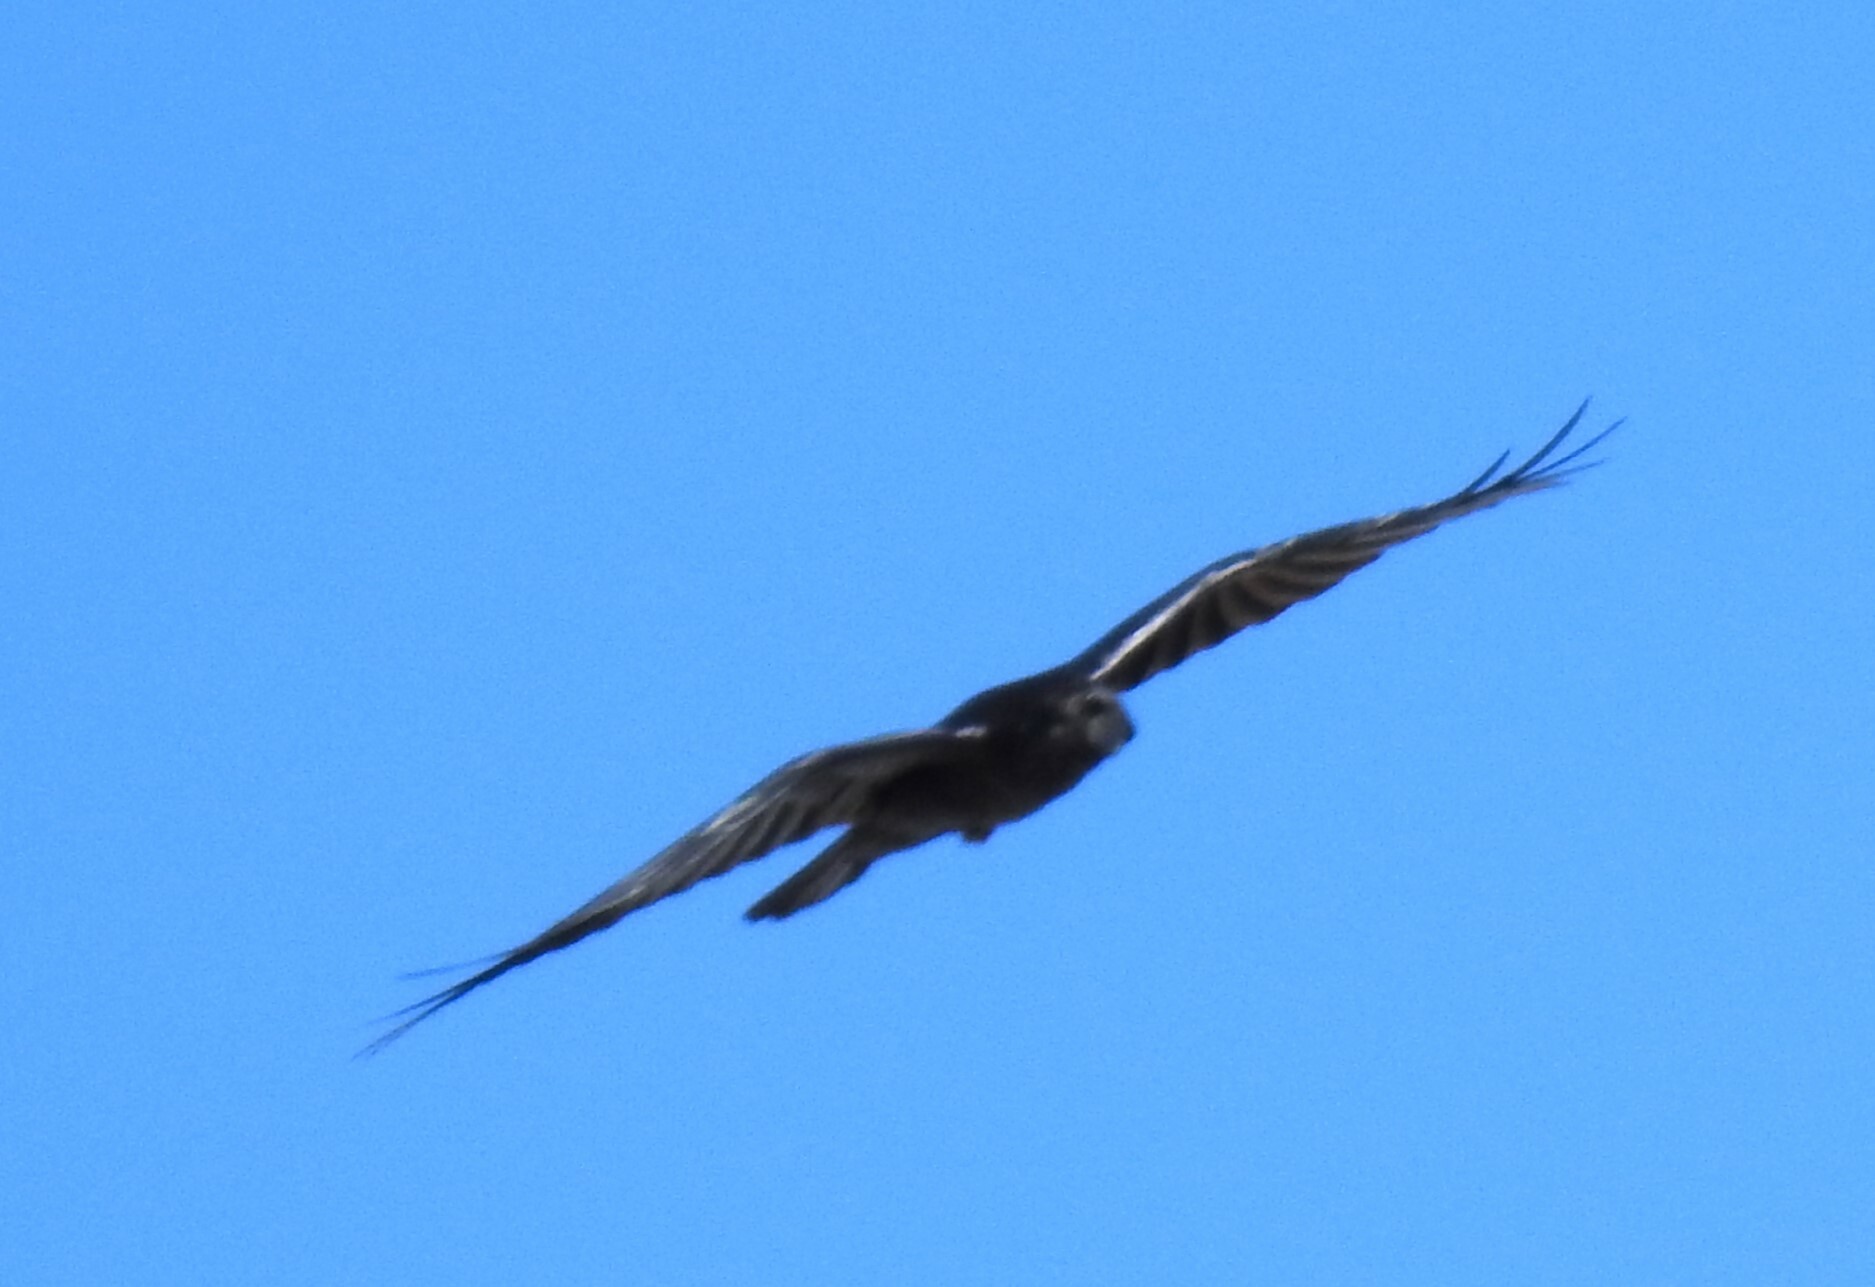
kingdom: Animalia
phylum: Chordata
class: Aves
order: Passeriformes
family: Corvidae
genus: Corvus
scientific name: Corvus corax
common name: Common raven
